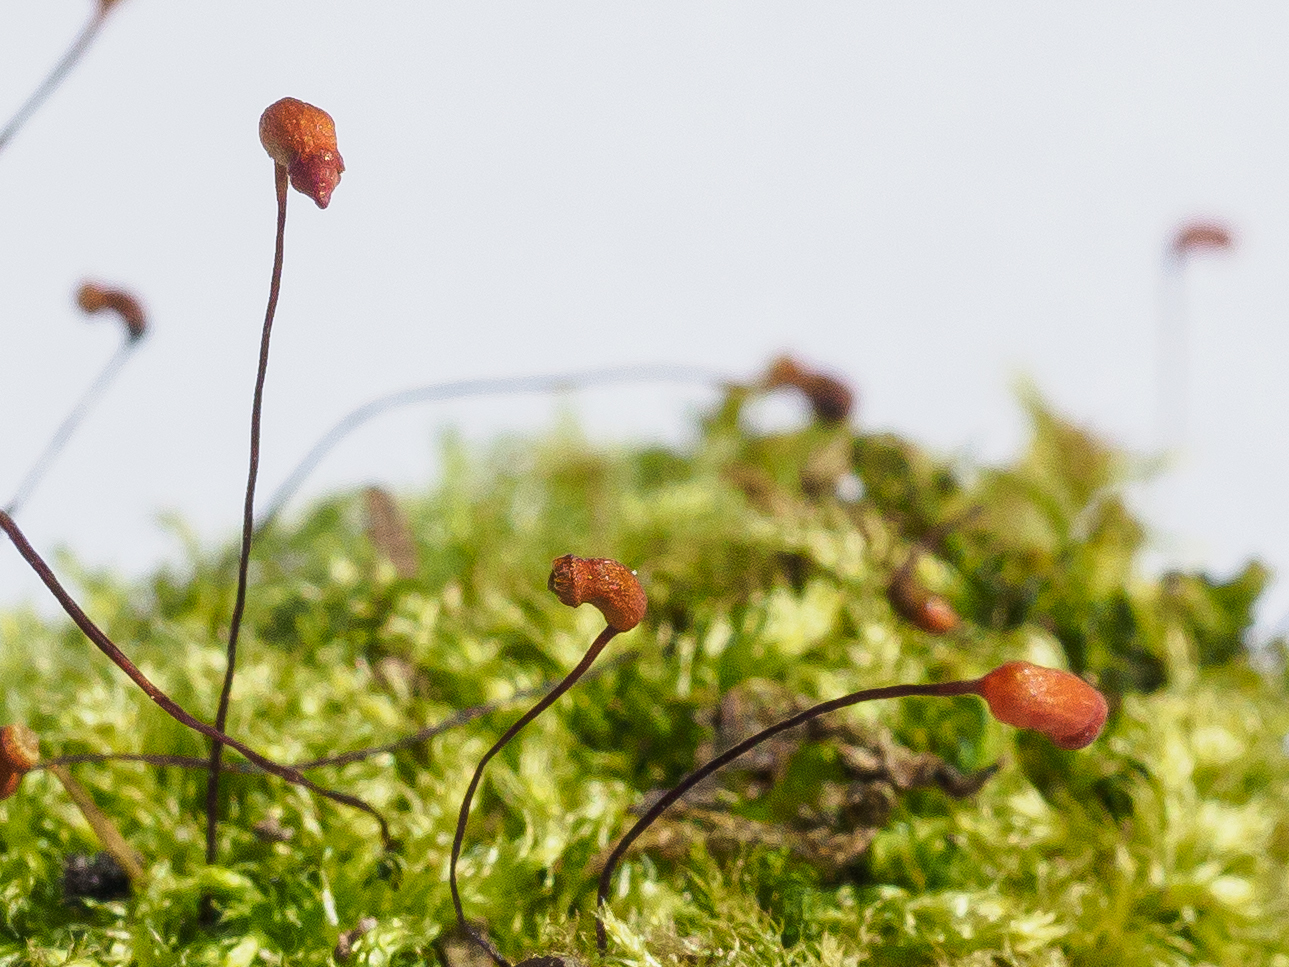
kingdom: Plantae
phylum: Bryophyta
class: Bryopsida
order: Hypnales
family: Brachytheciaceae
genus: Brachytheciastrum
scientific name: Brachytheciastrum velutinum
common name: Velvet feather-moss
